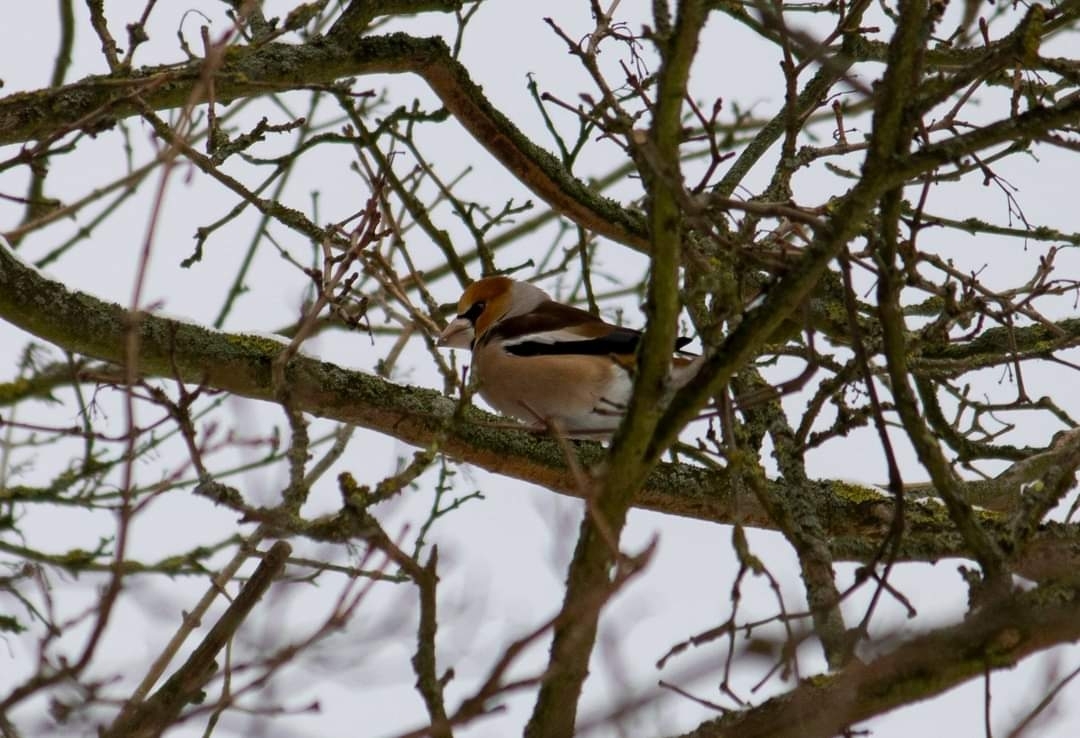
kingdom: Animalia
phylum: Chordata
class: Aves
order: Passeriformes
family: Fringillidae
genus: Coccothraustes
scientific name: Coccothraustes coccothraustes
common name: Hawfinch
